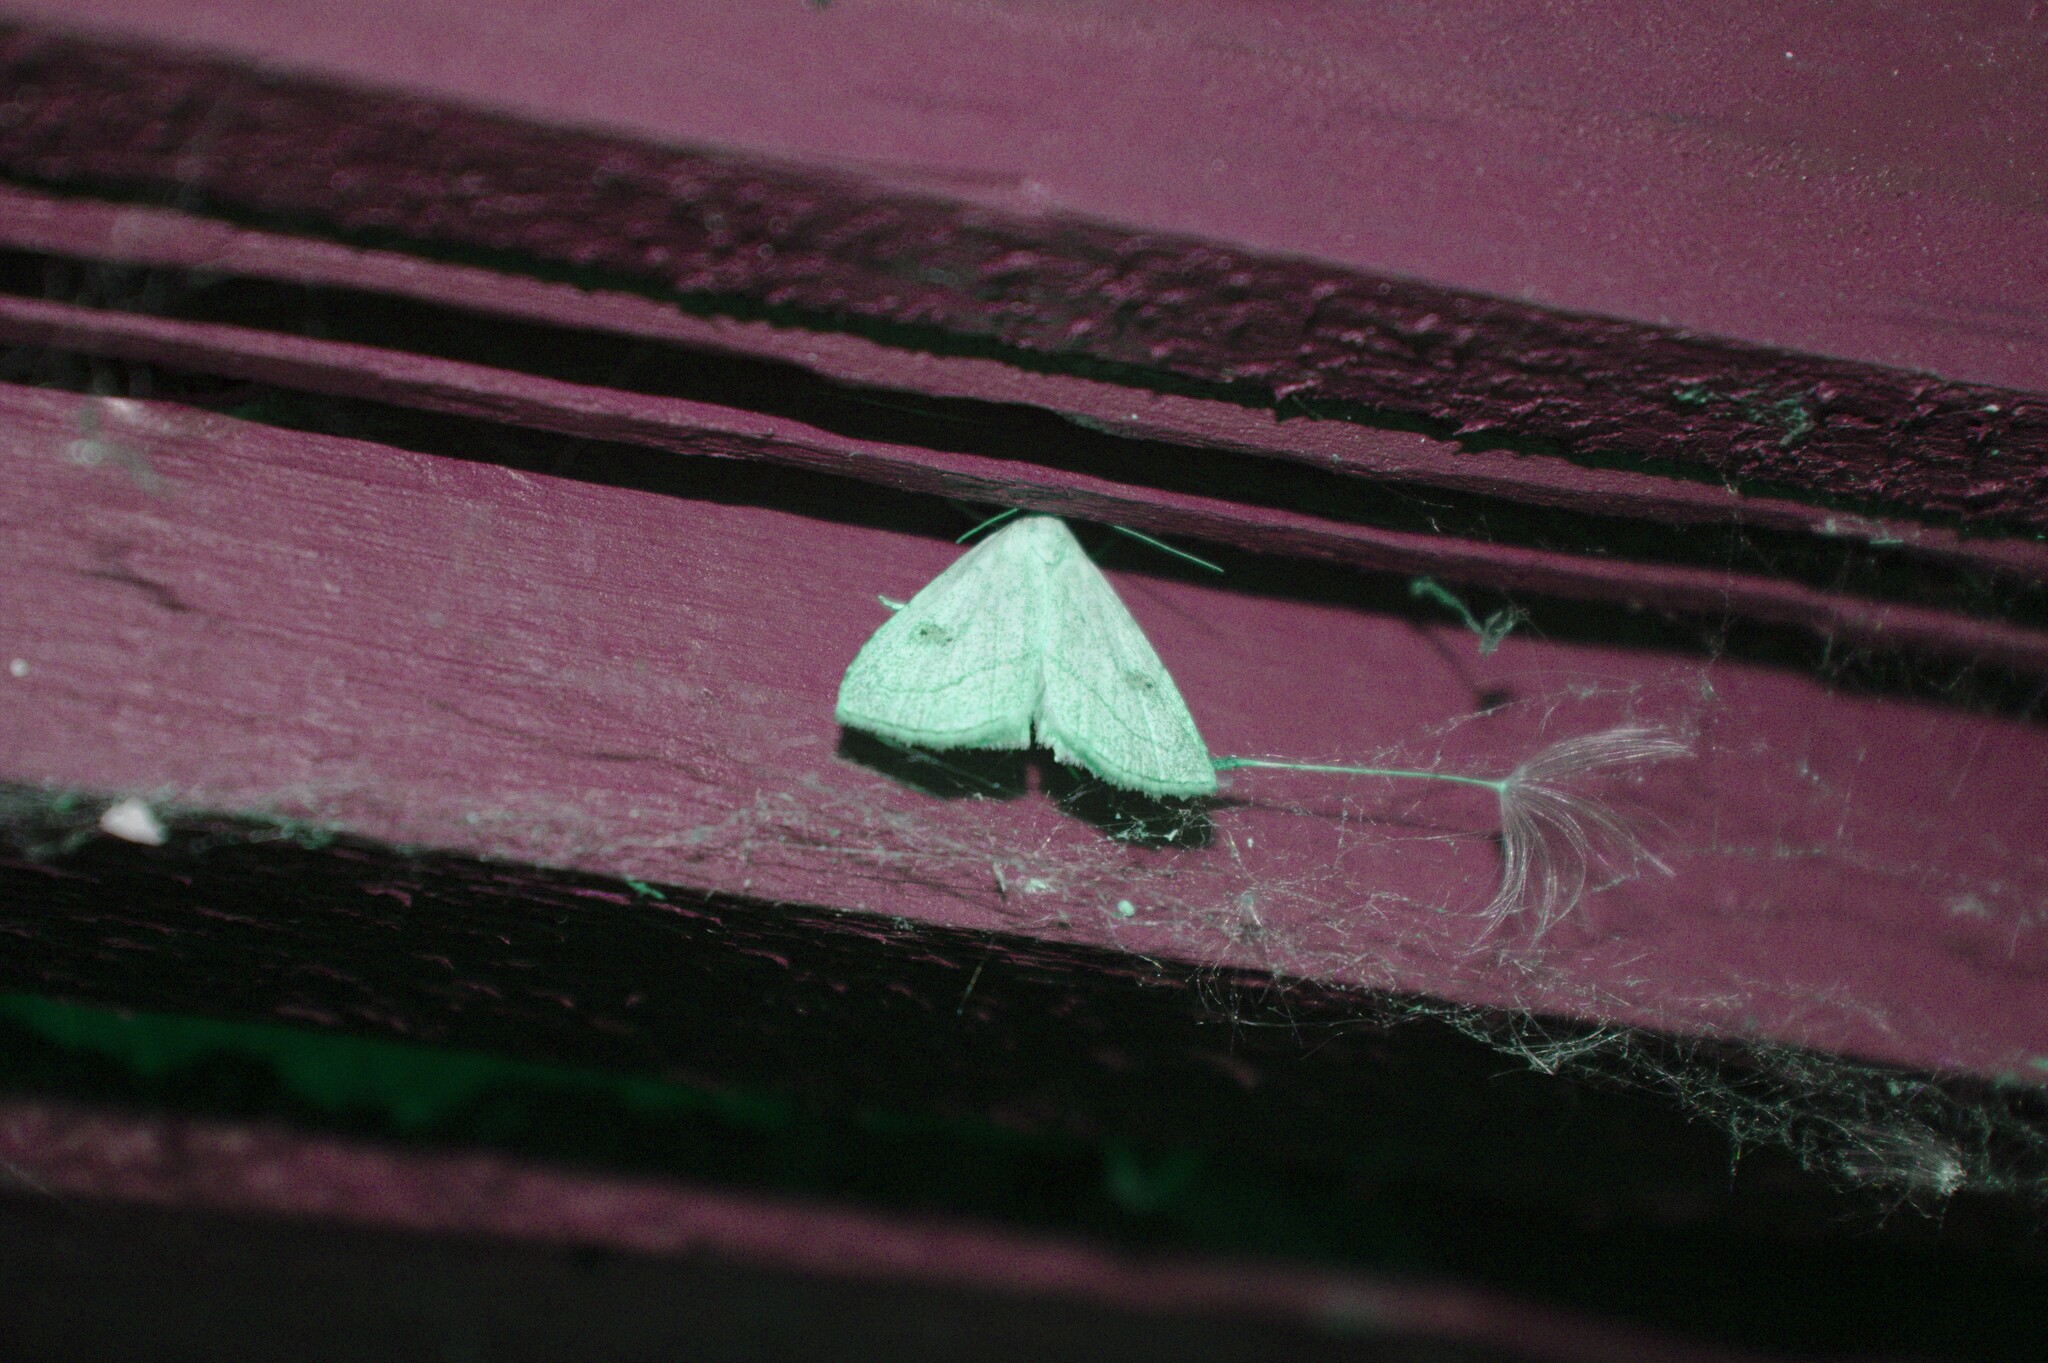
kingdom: Animalia
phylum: Arthropoda
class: Insecta
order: Lepidoptera
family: Erebidae
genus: Rivula
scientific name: Rivula propinqualis
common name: Spotted grass moth
